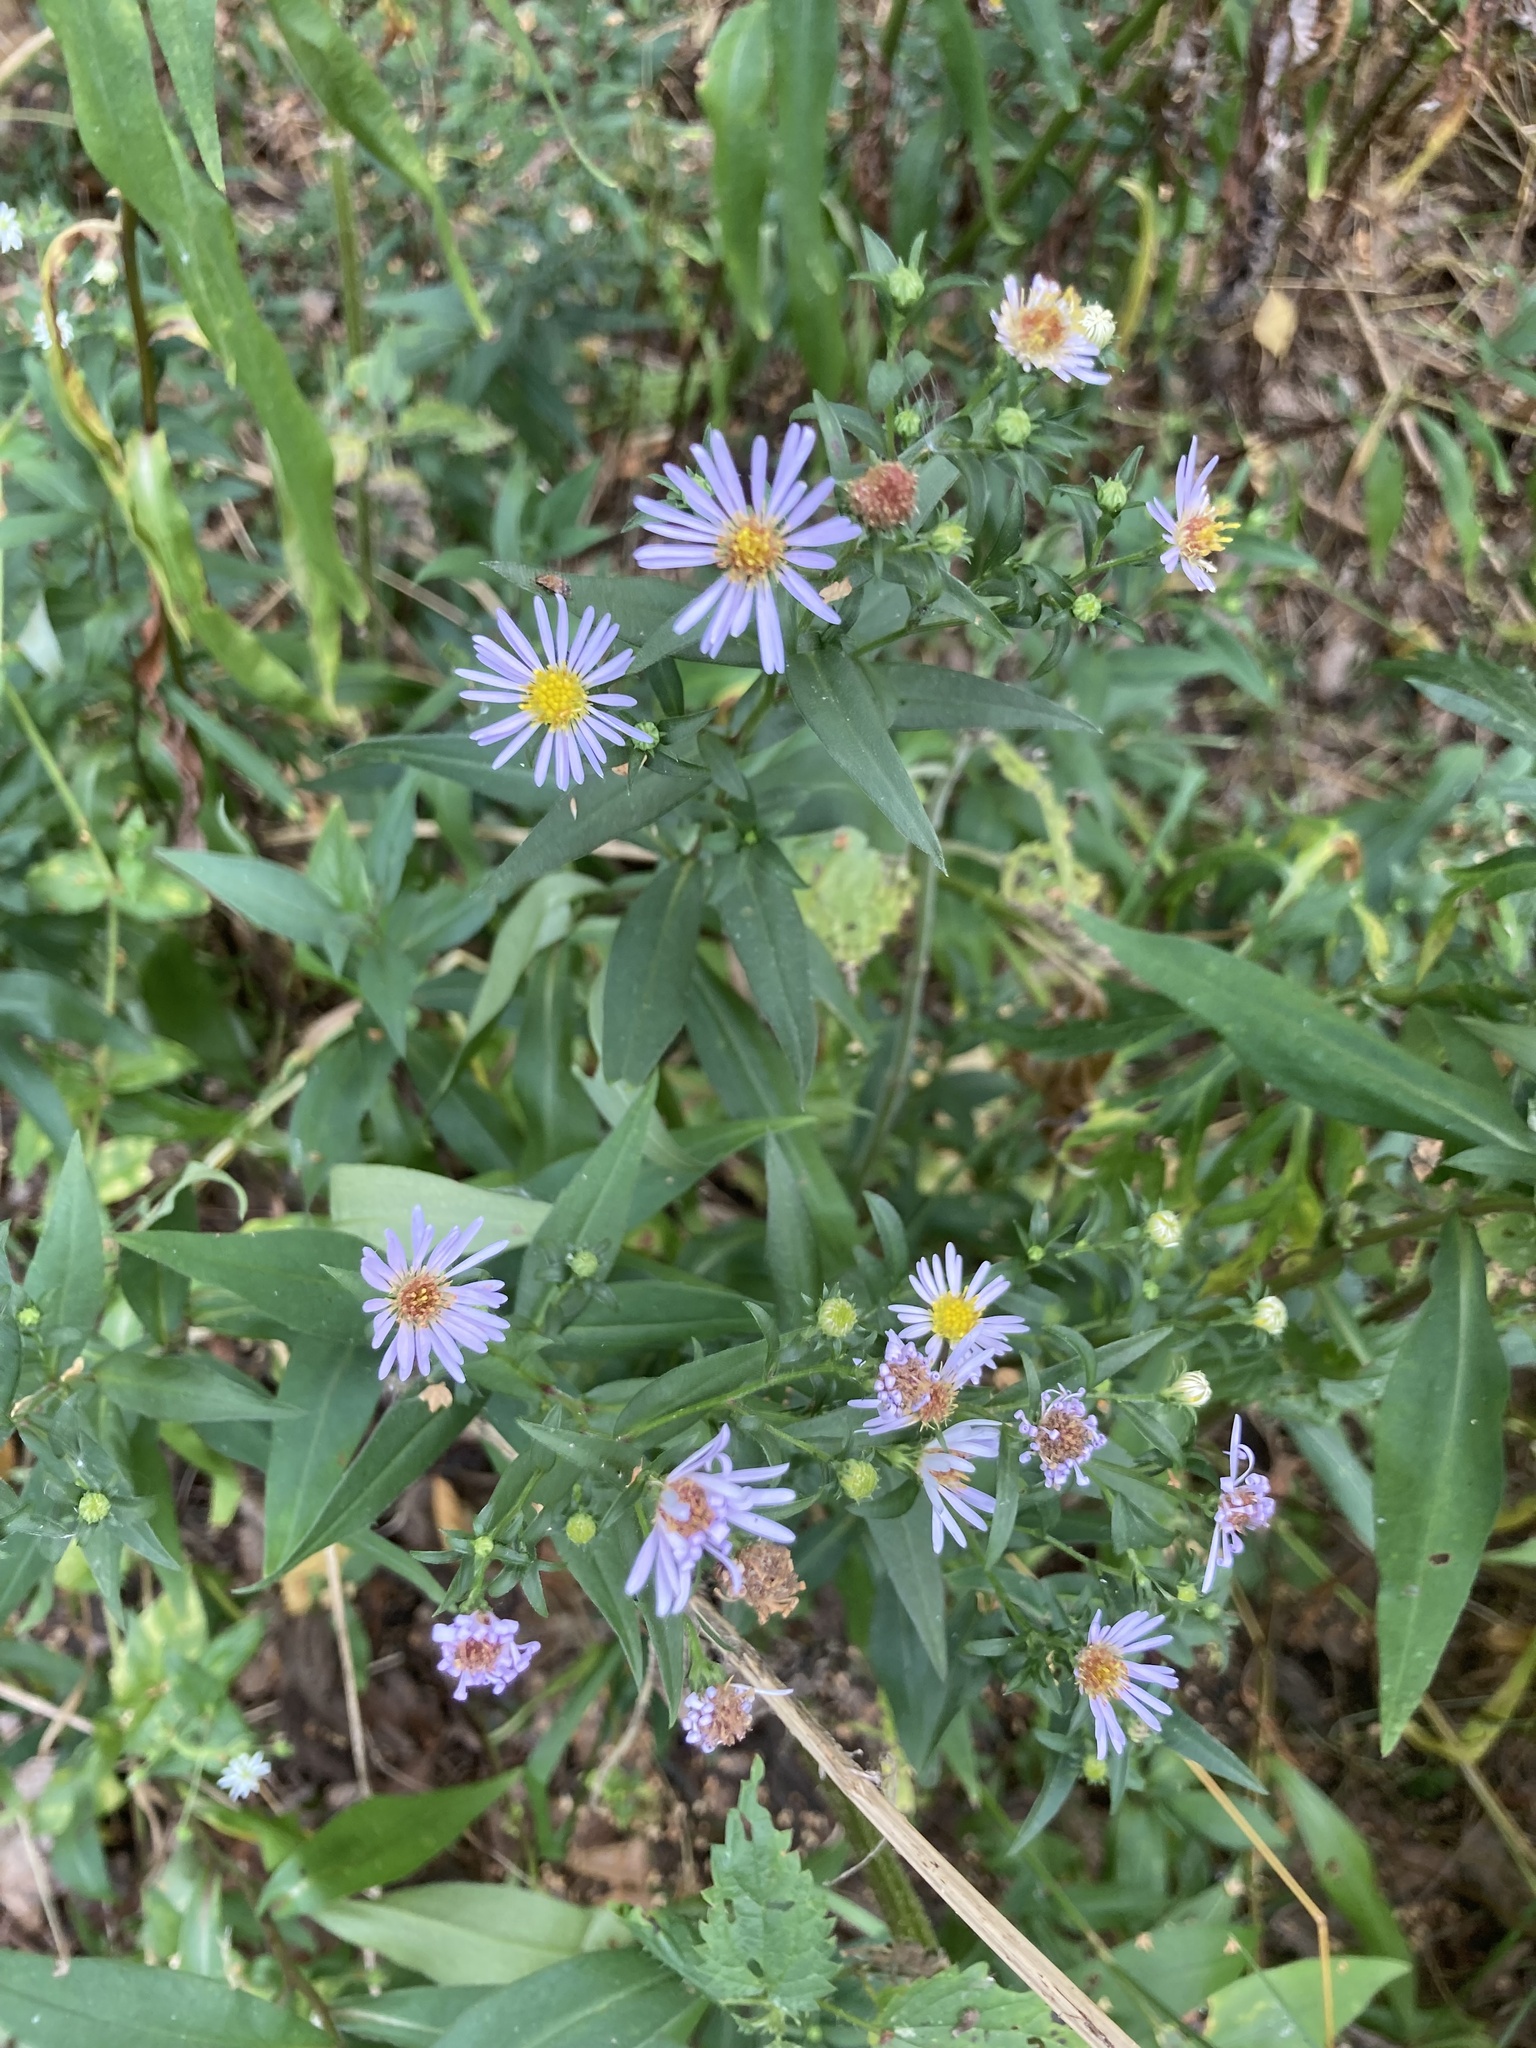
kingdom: Plantae
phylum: Tracheophyta
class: Magnoliopsida
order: Asterales
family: Asteraceae
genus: Symphyotrichum
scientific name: Symphyotrichum novi-belgii
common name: Michaelmas daisy
